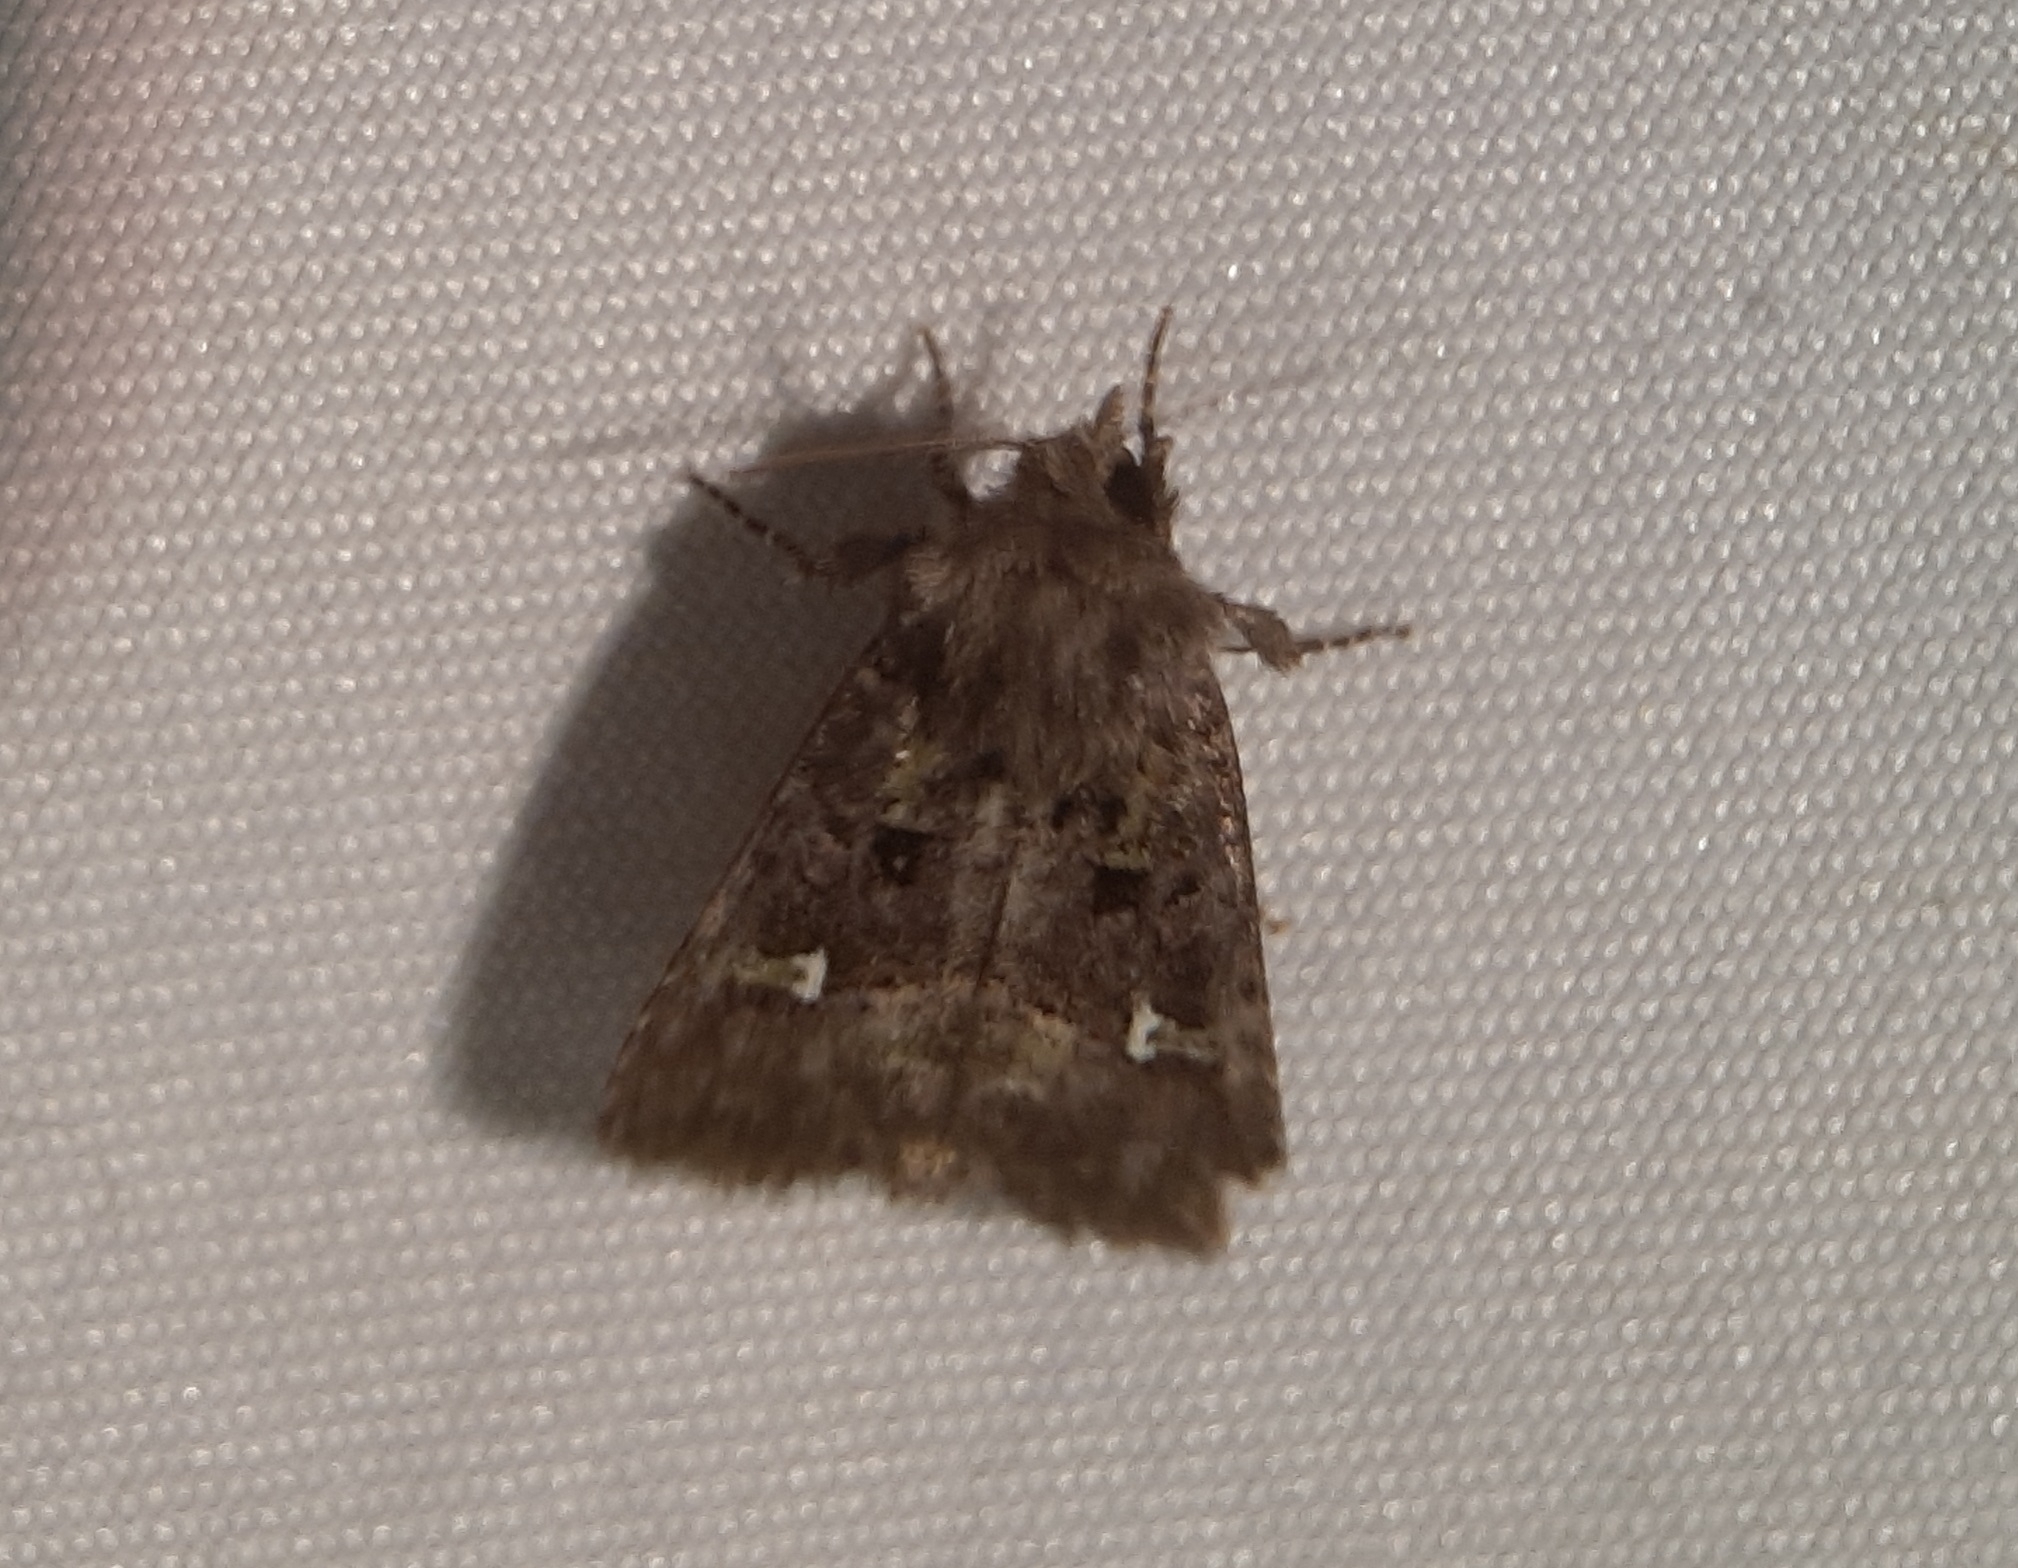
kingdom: Animalia
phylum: Arthropoda
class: Insecta
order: Lepidoptera
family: Noctuidae
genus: Lacinipolia
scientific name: Lacinipolia renigera
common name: Kidney-spotted minor
